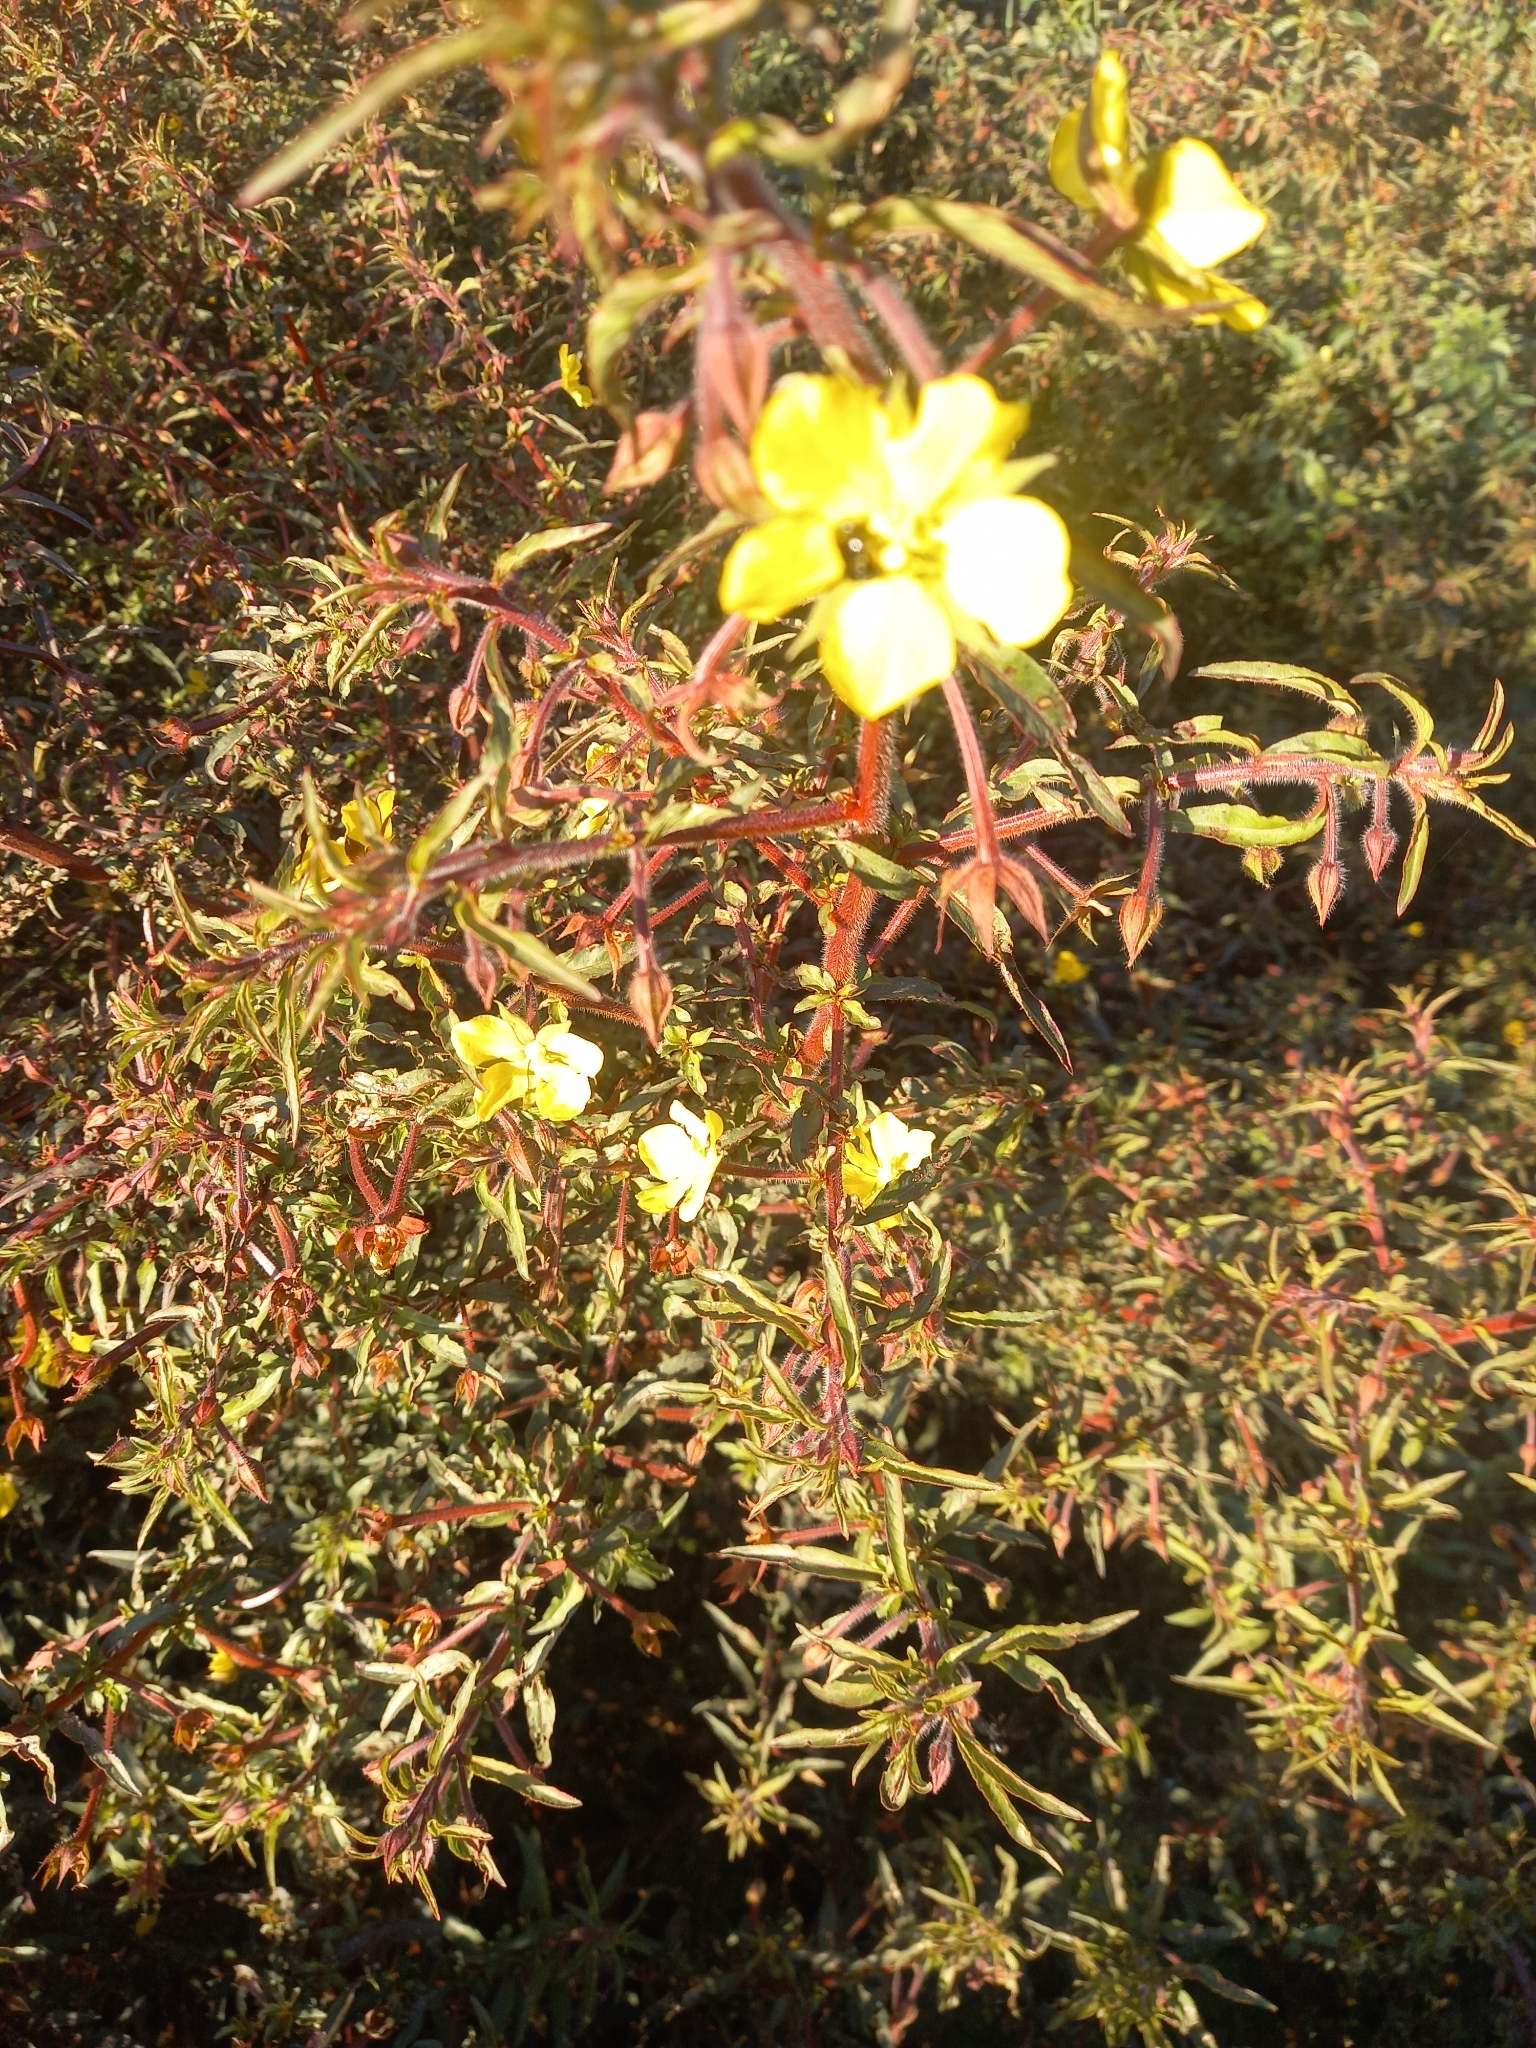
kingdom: Plantae
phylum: Tracheophyta
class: Magnoliopsida
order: Myrtales
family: Onagraceae
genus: Ludwigia
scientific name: Ludwigia octovalvis
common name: Water-primrose
